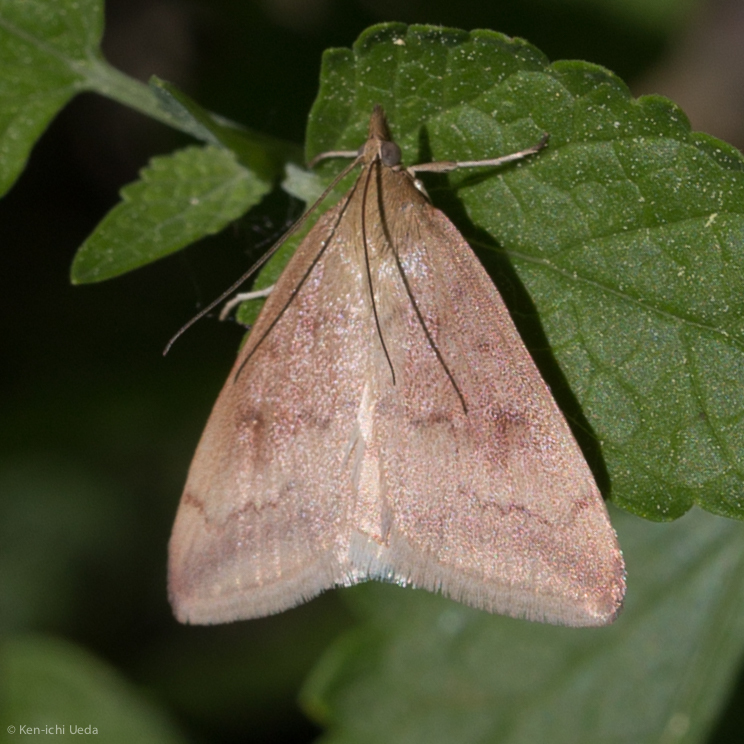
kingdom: Animalia
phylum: Arthropoda
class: Insecta
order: Lepidoptera
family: Crambidae
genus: Pyrausta
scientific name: Pyrausta fodinalis
